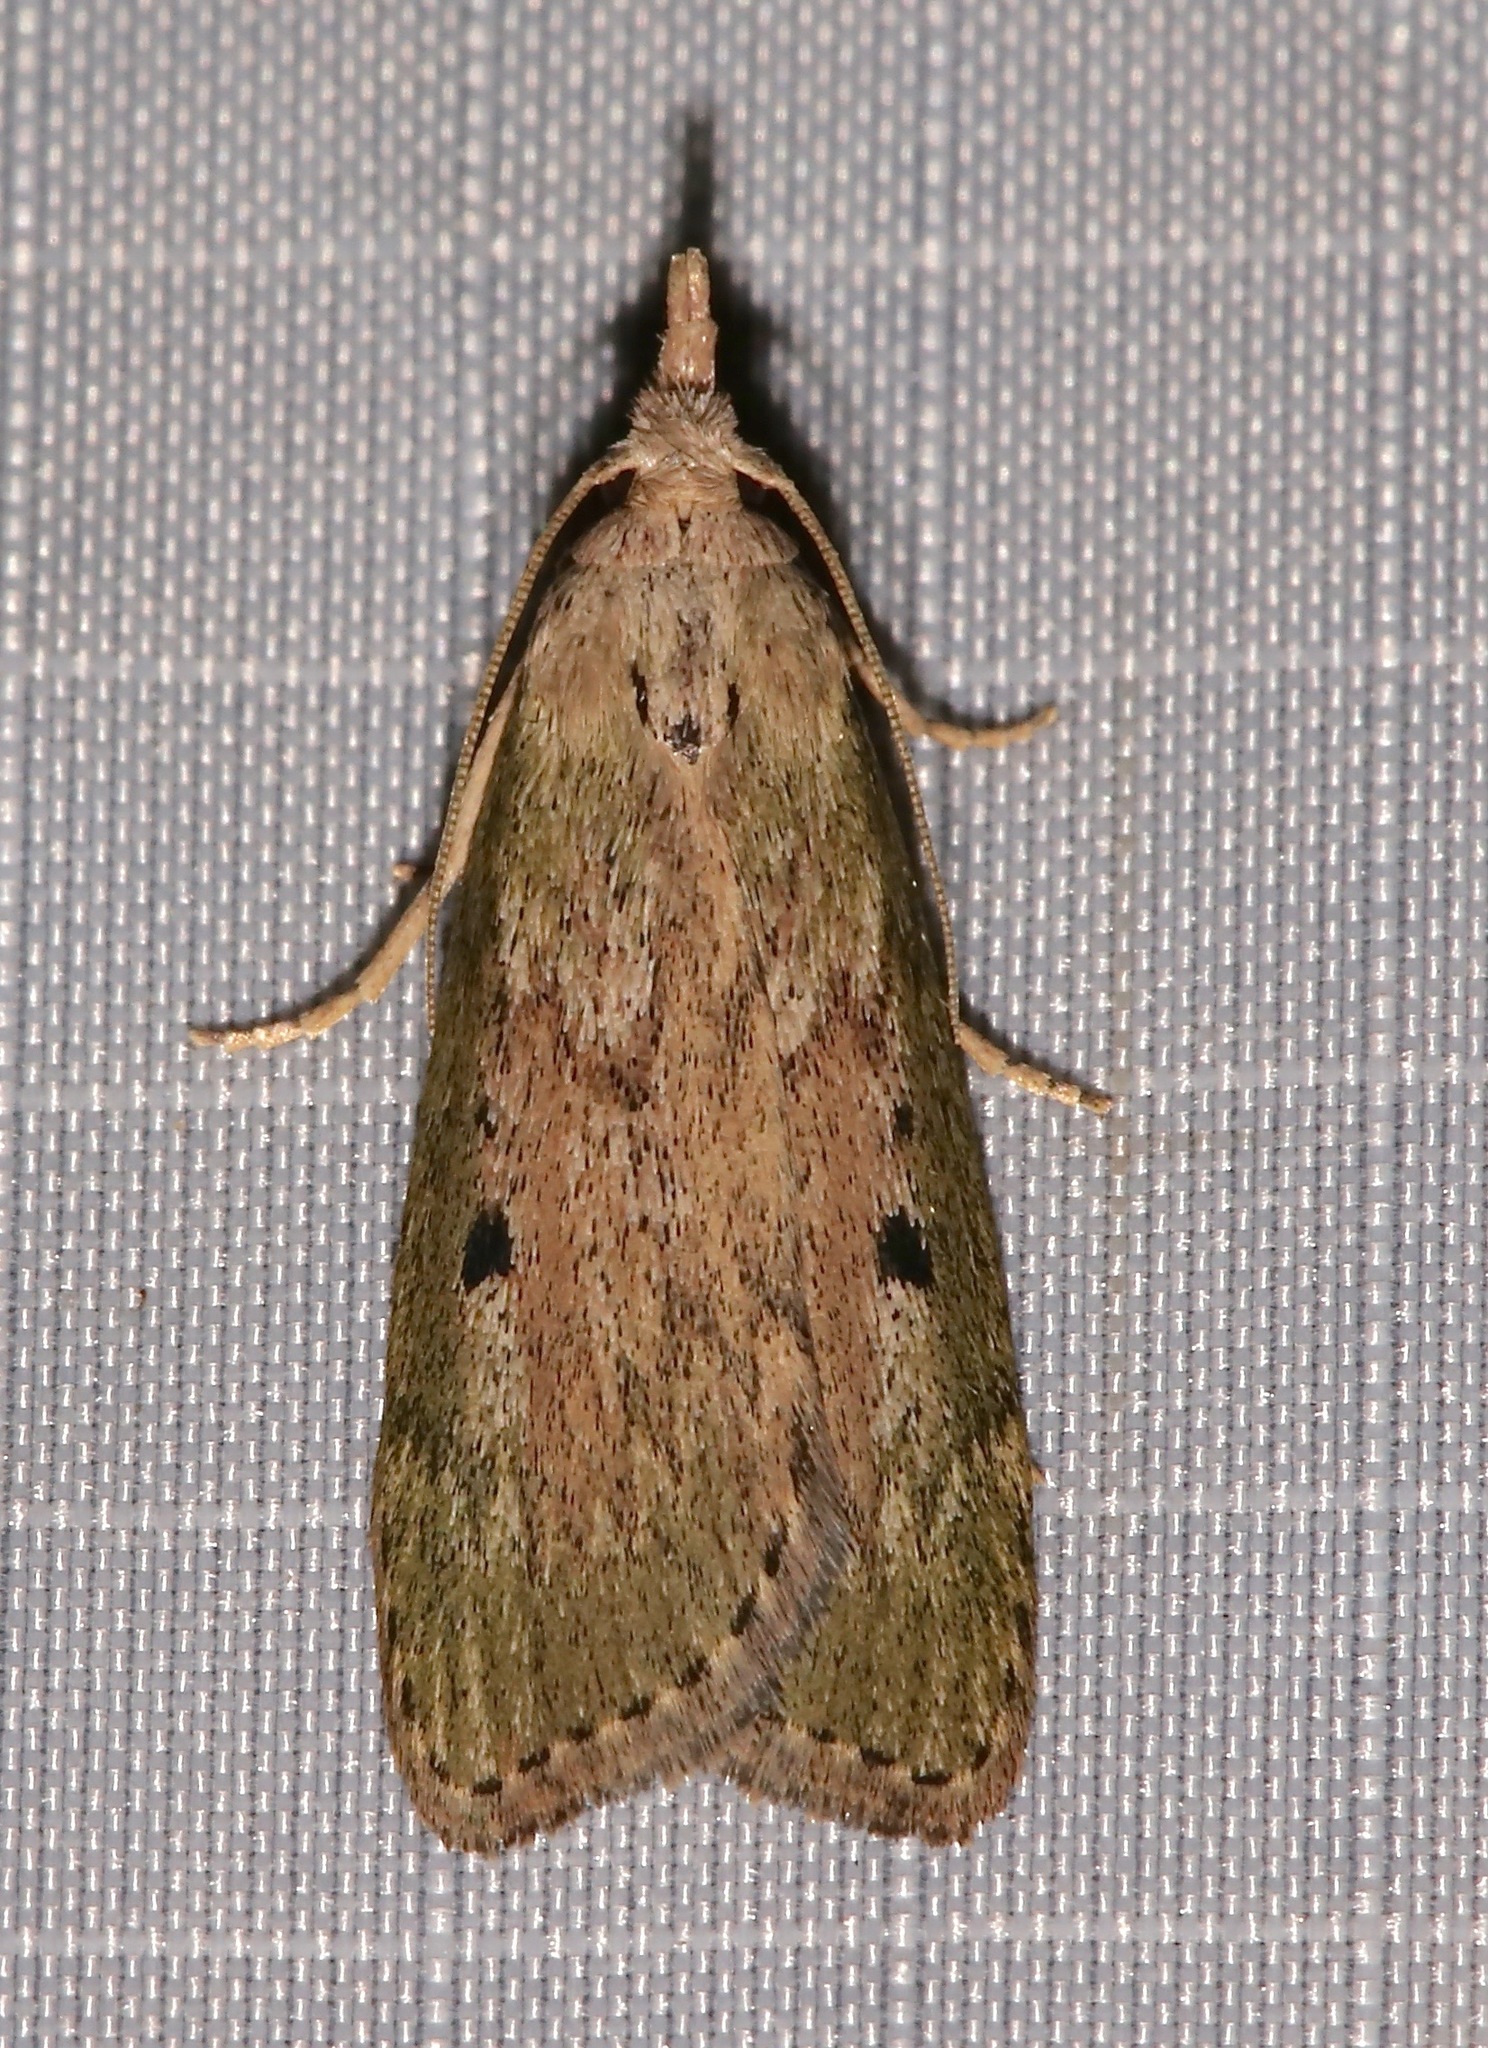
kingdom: Animalia
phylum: Arthropoda
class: Insecta
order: Lepidoptera
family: Pyralidae
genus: Aphomia
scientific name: Aphomia sociella
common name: Bee moth
